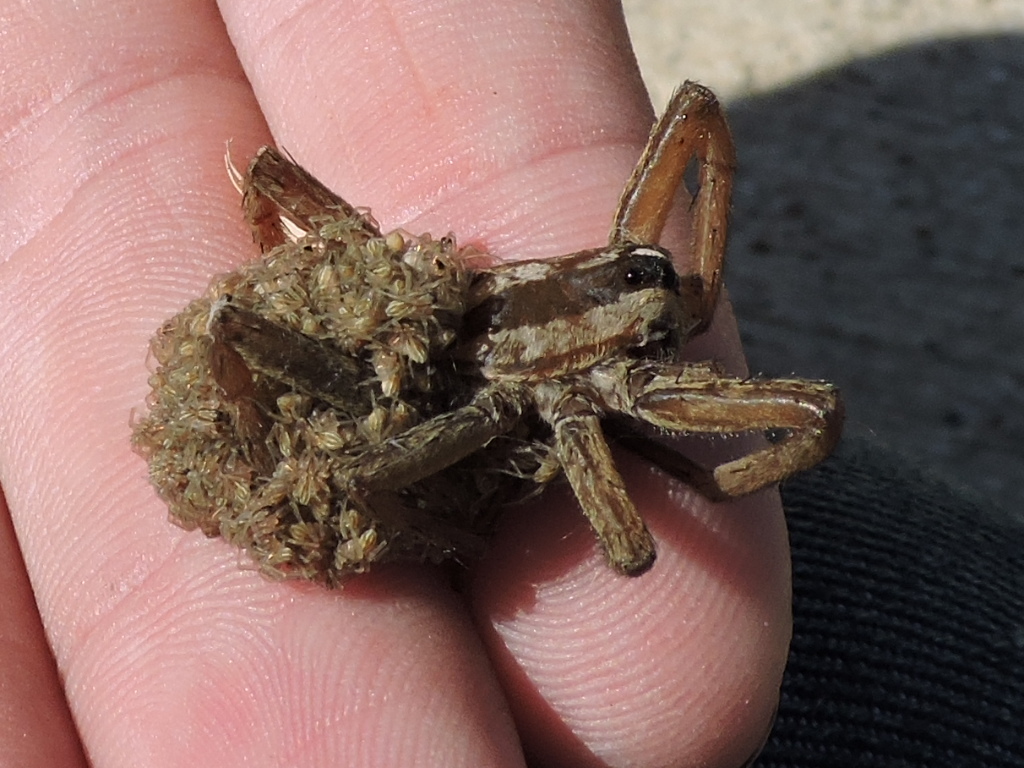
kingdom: Animalia
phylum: Arthropoda
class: Arachnida
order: Araneae
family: Lycosidae
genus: Rabidosa
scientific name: Rabidosa rabida
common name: Rabid wolf spider
